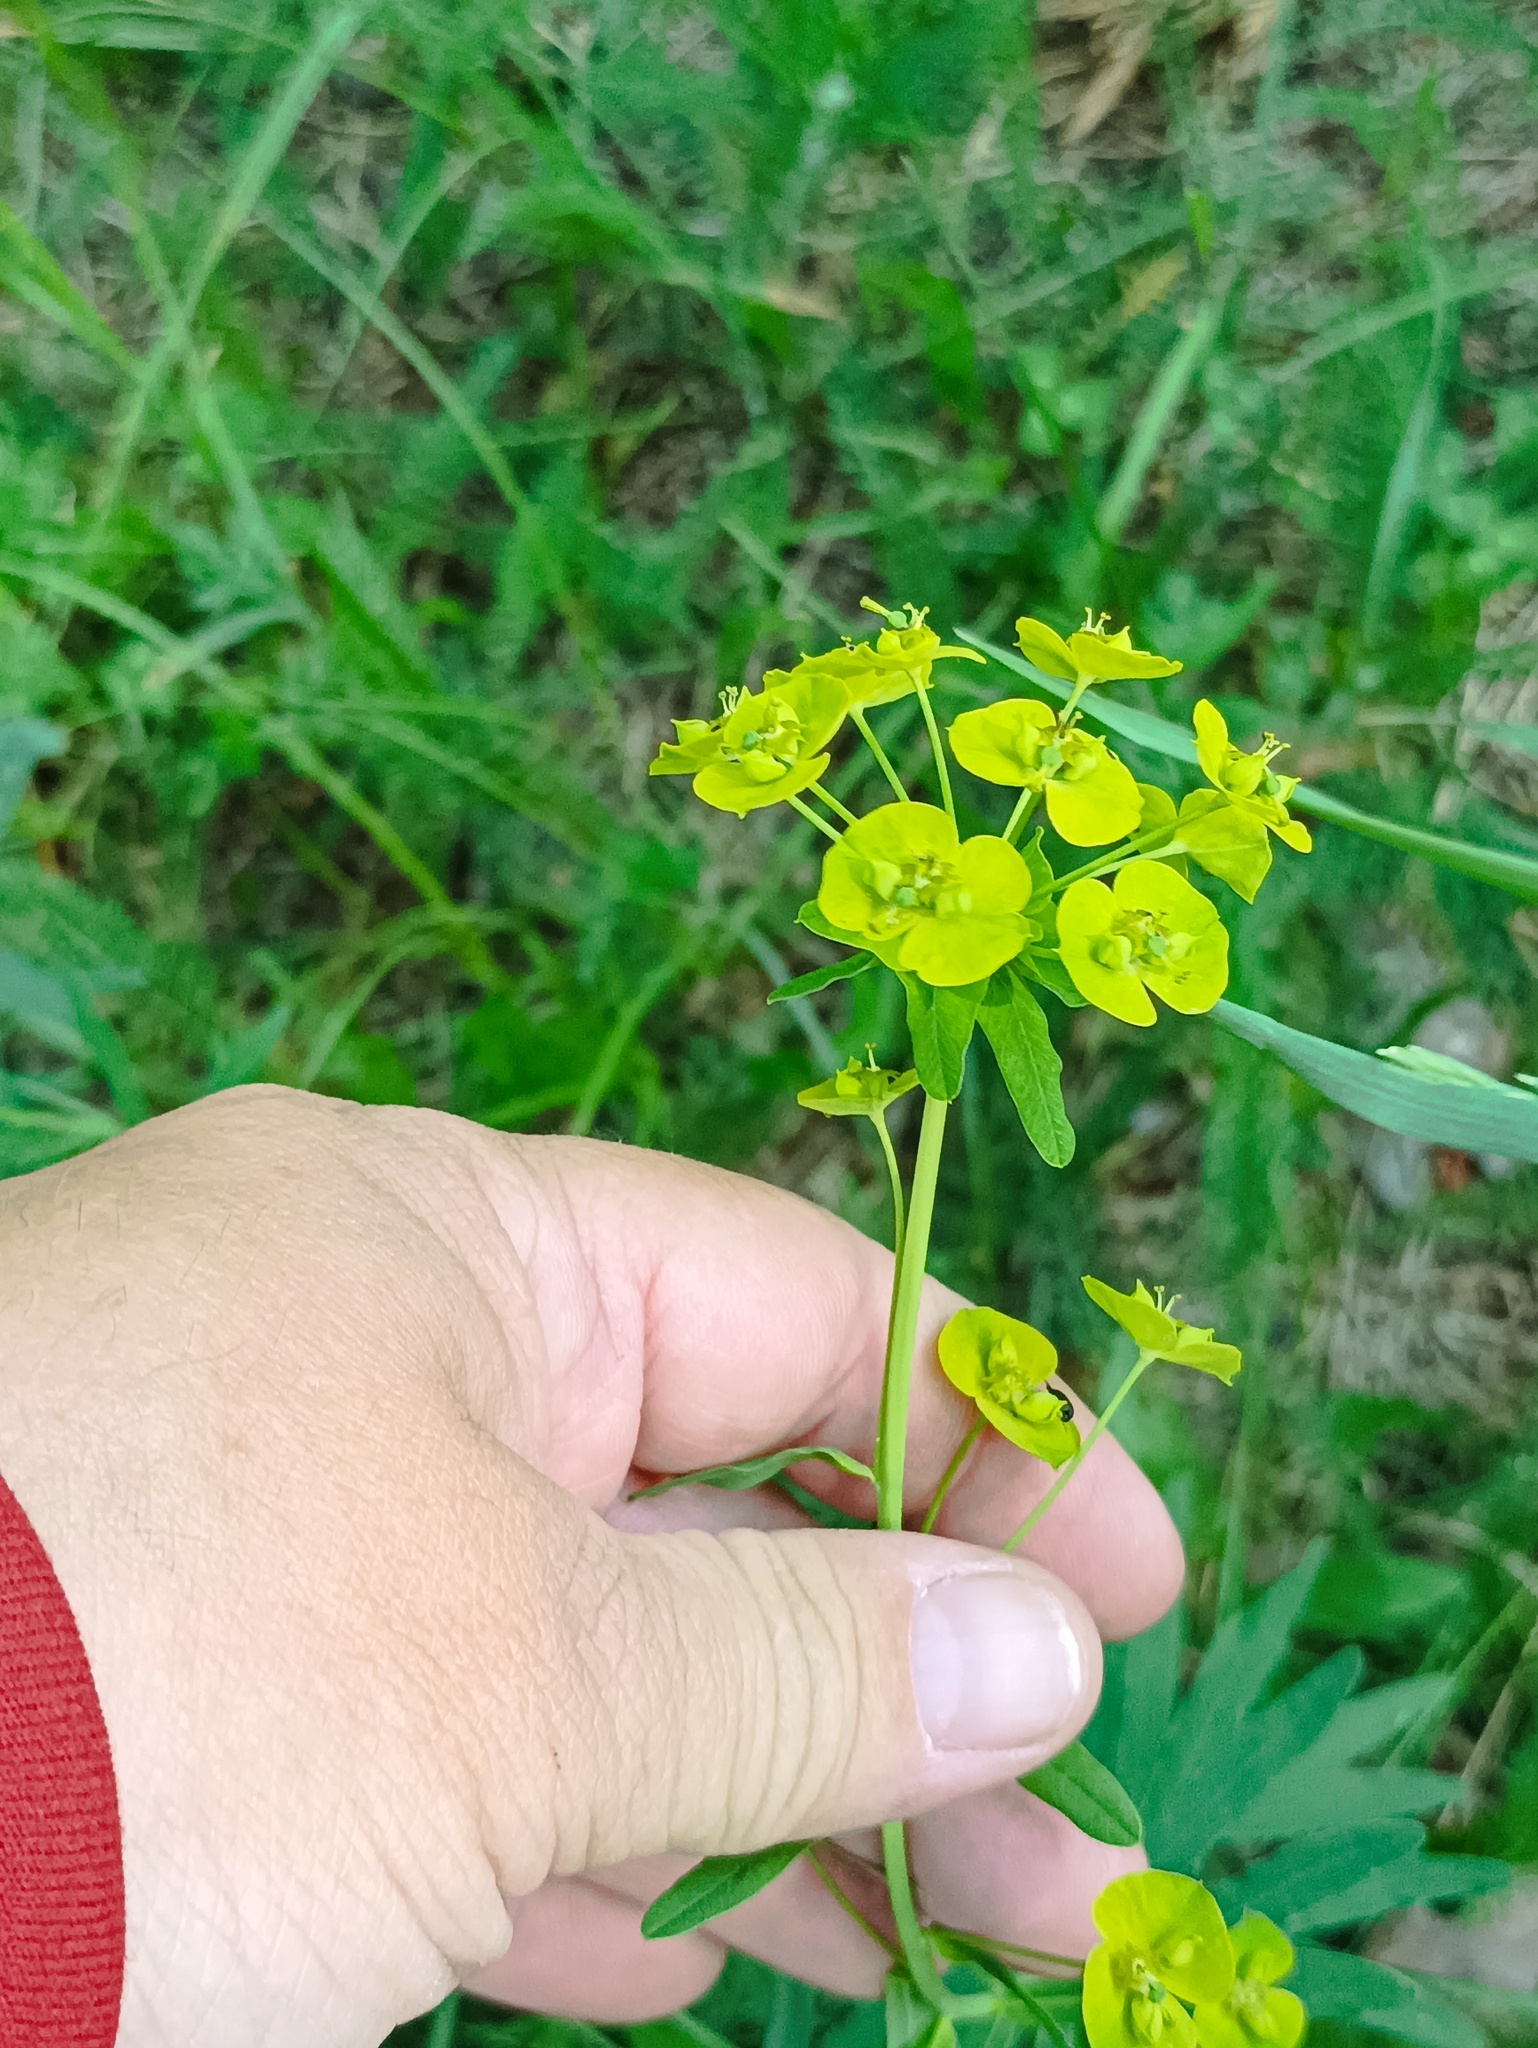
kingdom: Plantae
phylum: Tracheophyta
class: Magnoliopsida
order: Malpighiales
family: Euphorbiaceae
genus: Euphorbia
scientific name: Euphorbia virgata
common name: Leafy spurge
